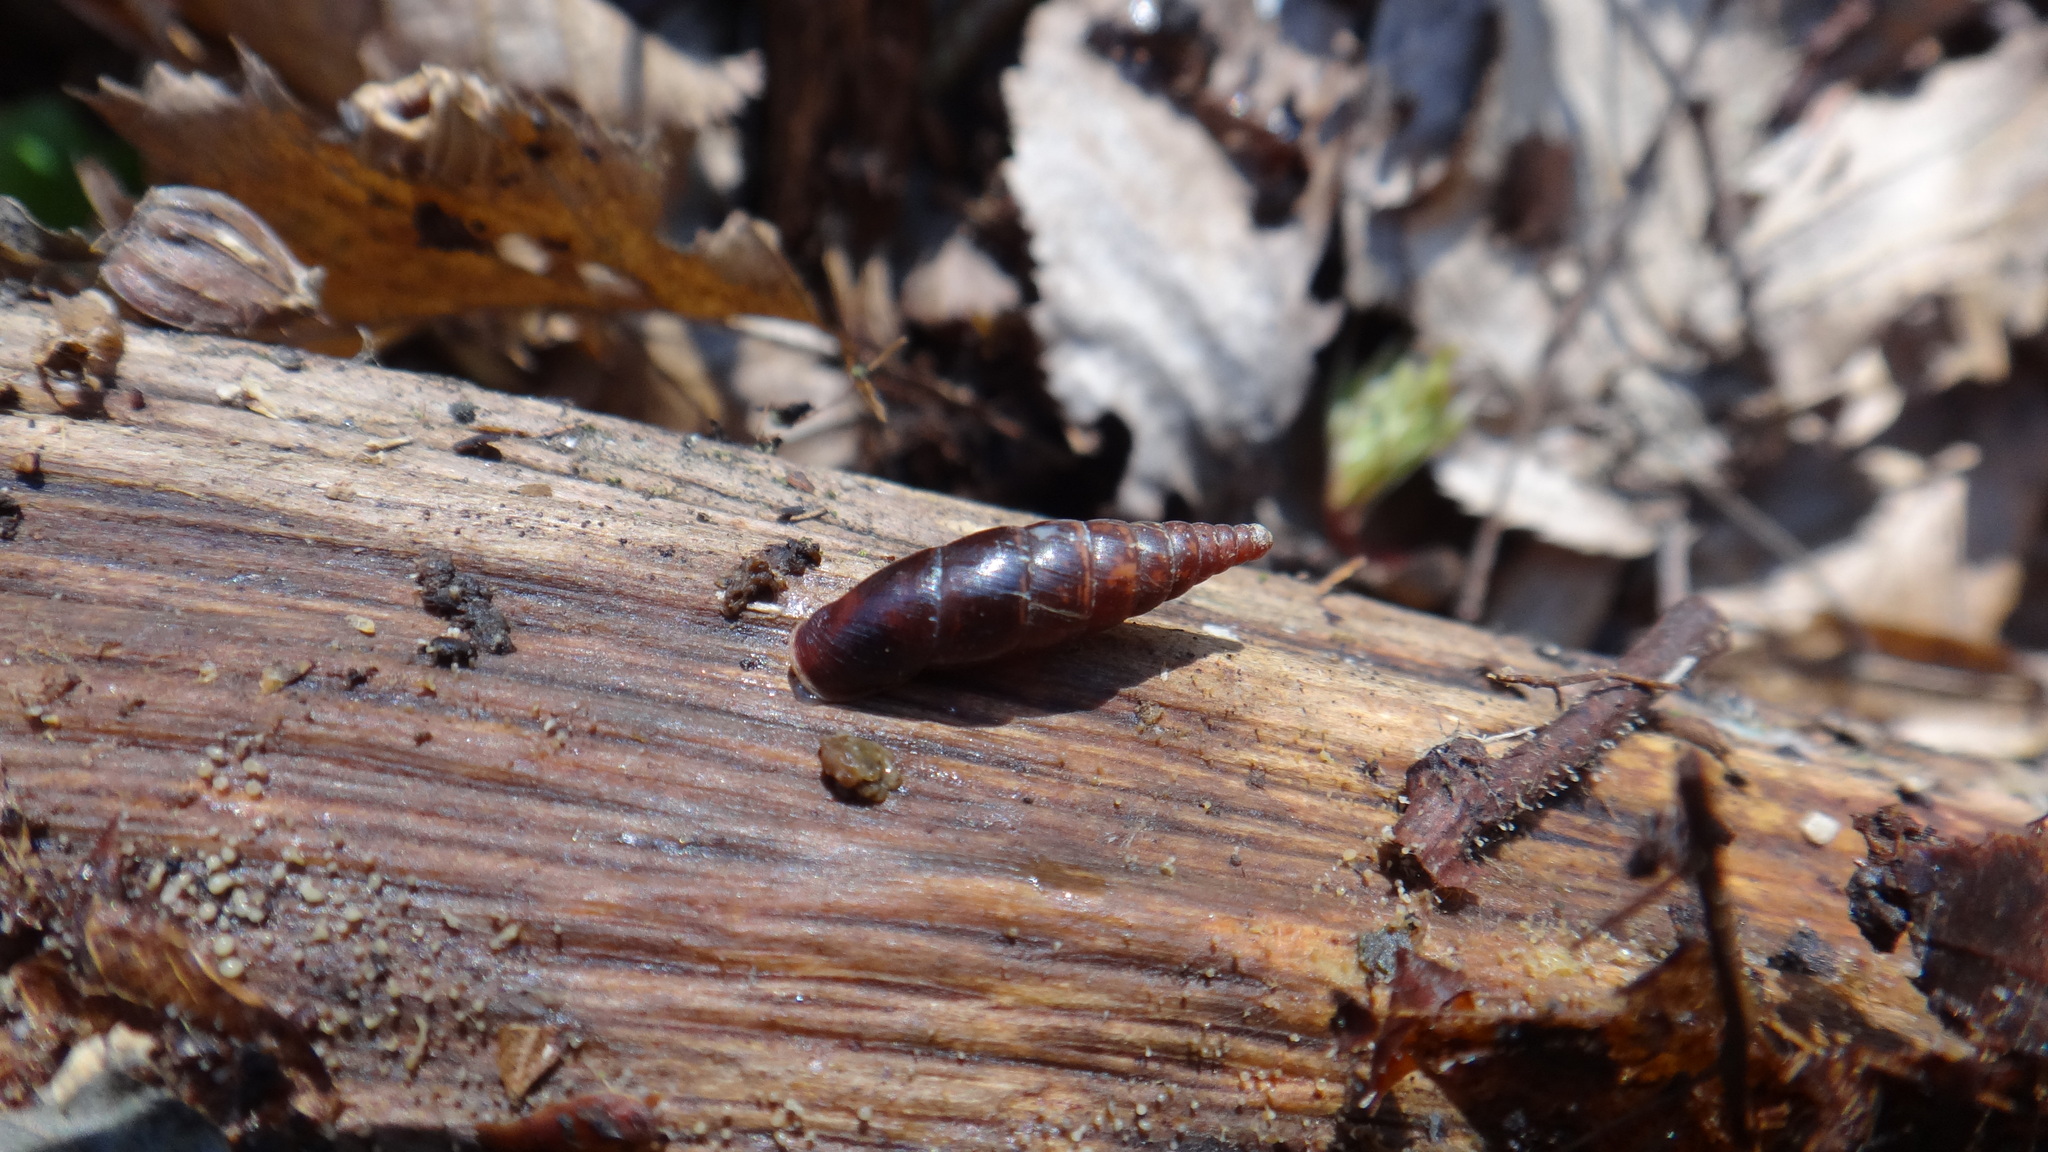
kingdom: Animalia
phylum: Mollusca
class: Gastropoda
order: Stylommatophora
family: Clausiliidae
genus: Cochlodina
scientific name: Cochlodina laminata
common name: Plaited door snail
